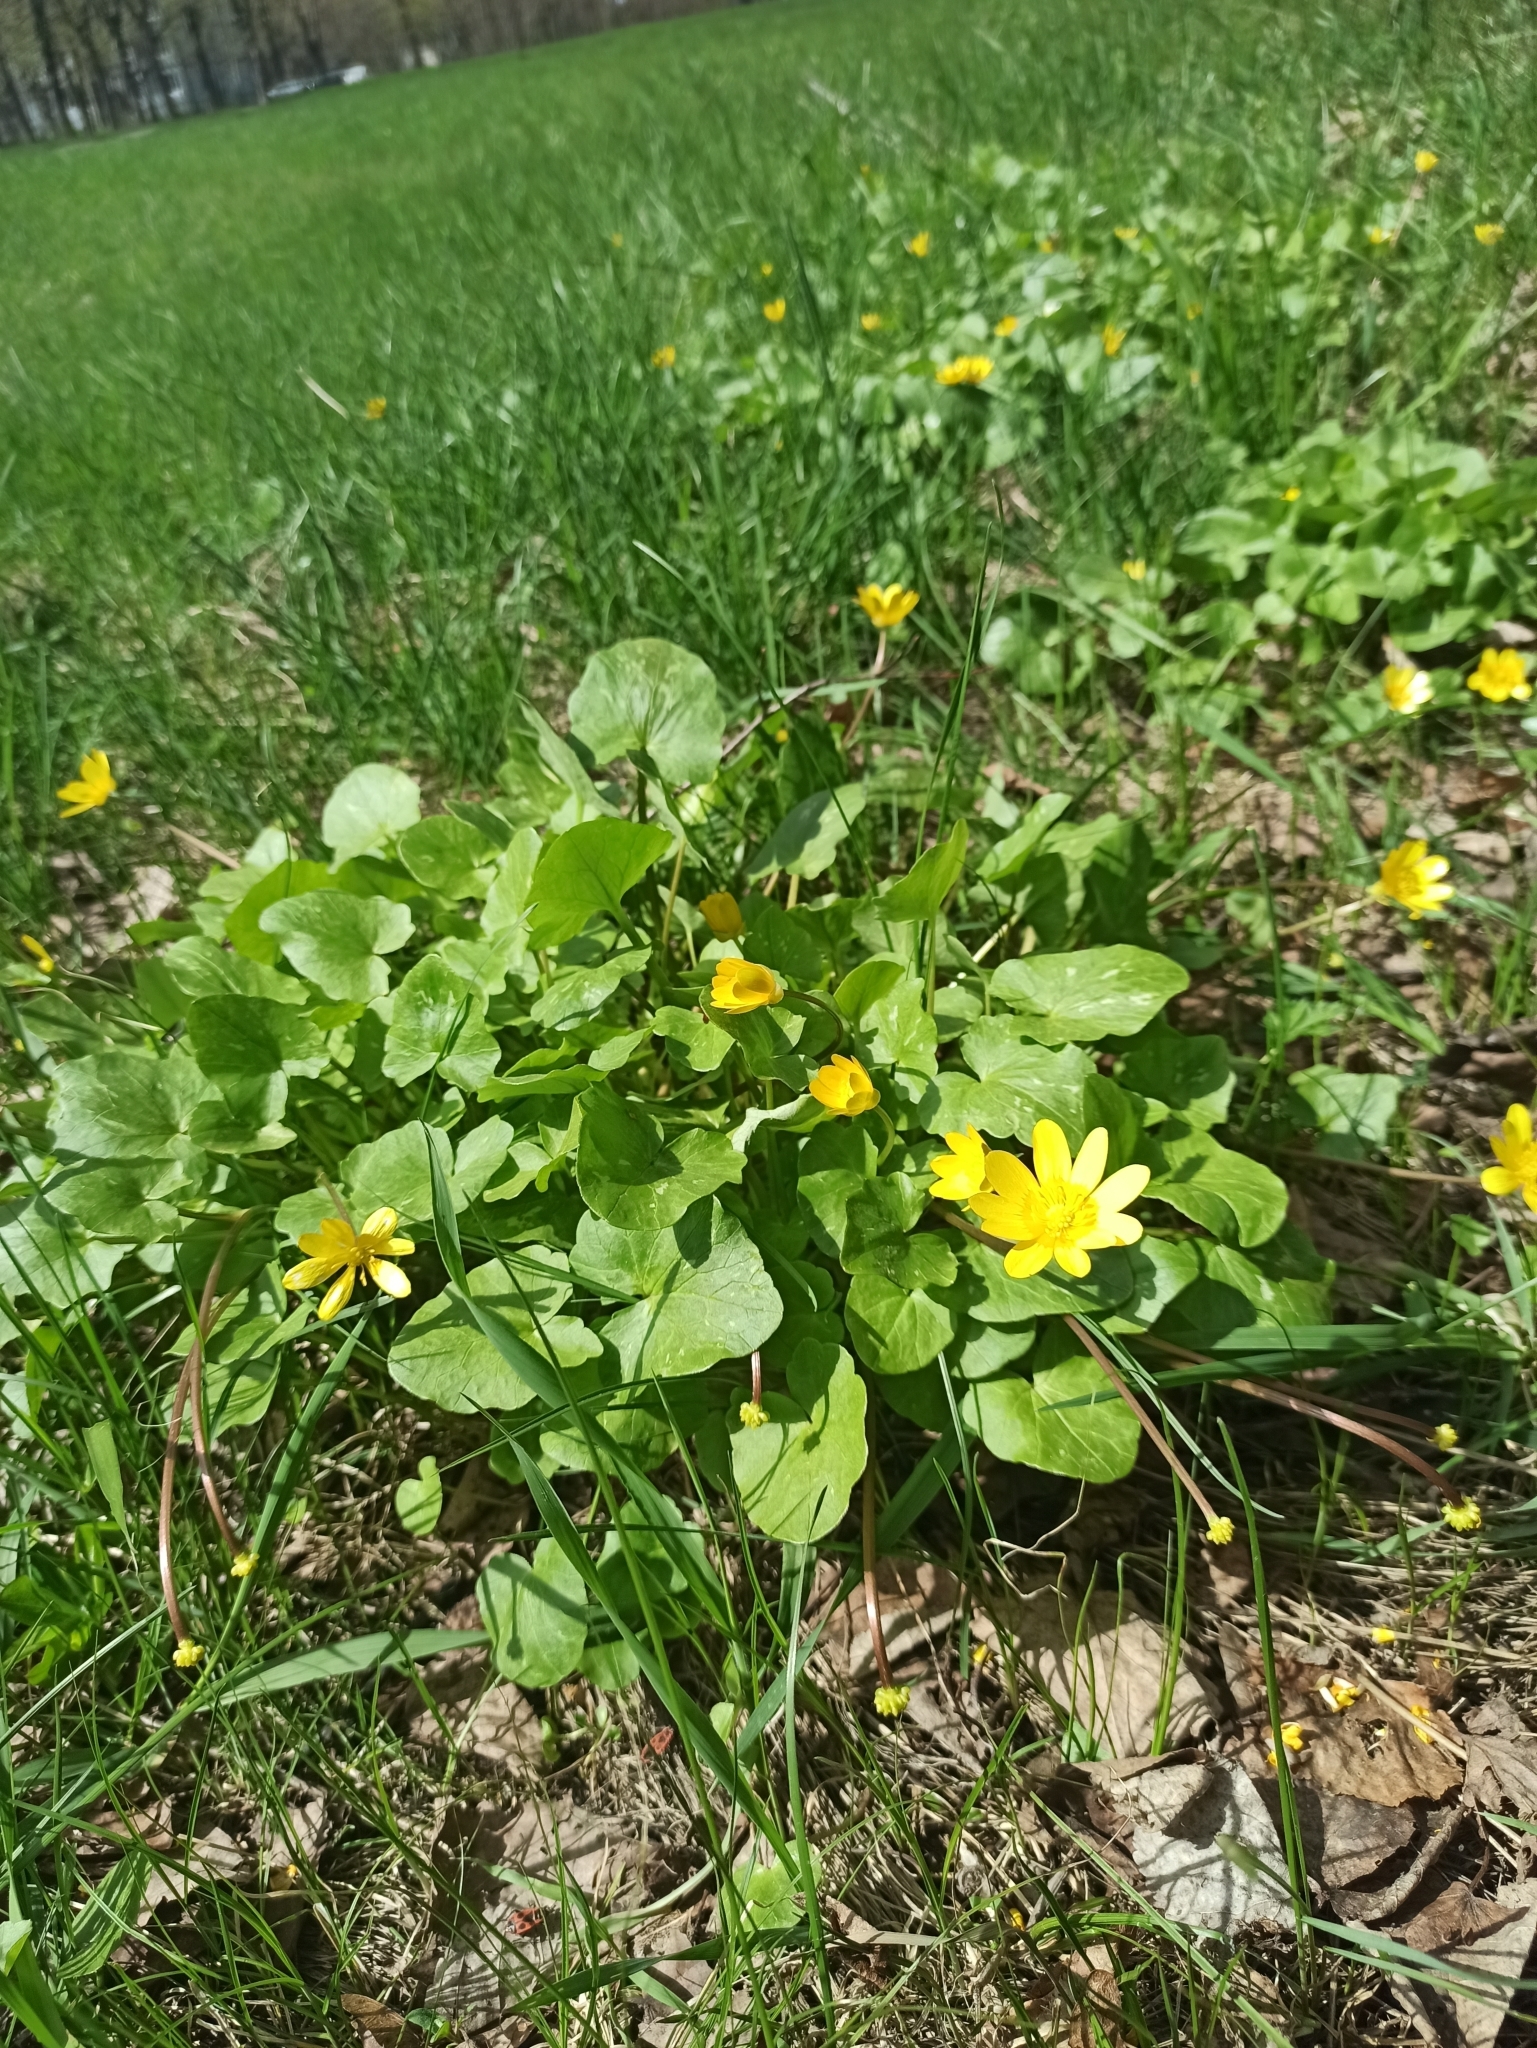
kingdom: Plantae
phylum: Tracheophyta
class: Magnoliopsida
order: Ranunculales
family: Ranunculaceae
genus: Ficaria
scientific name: Ficaria verna
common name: Lesser celandine
